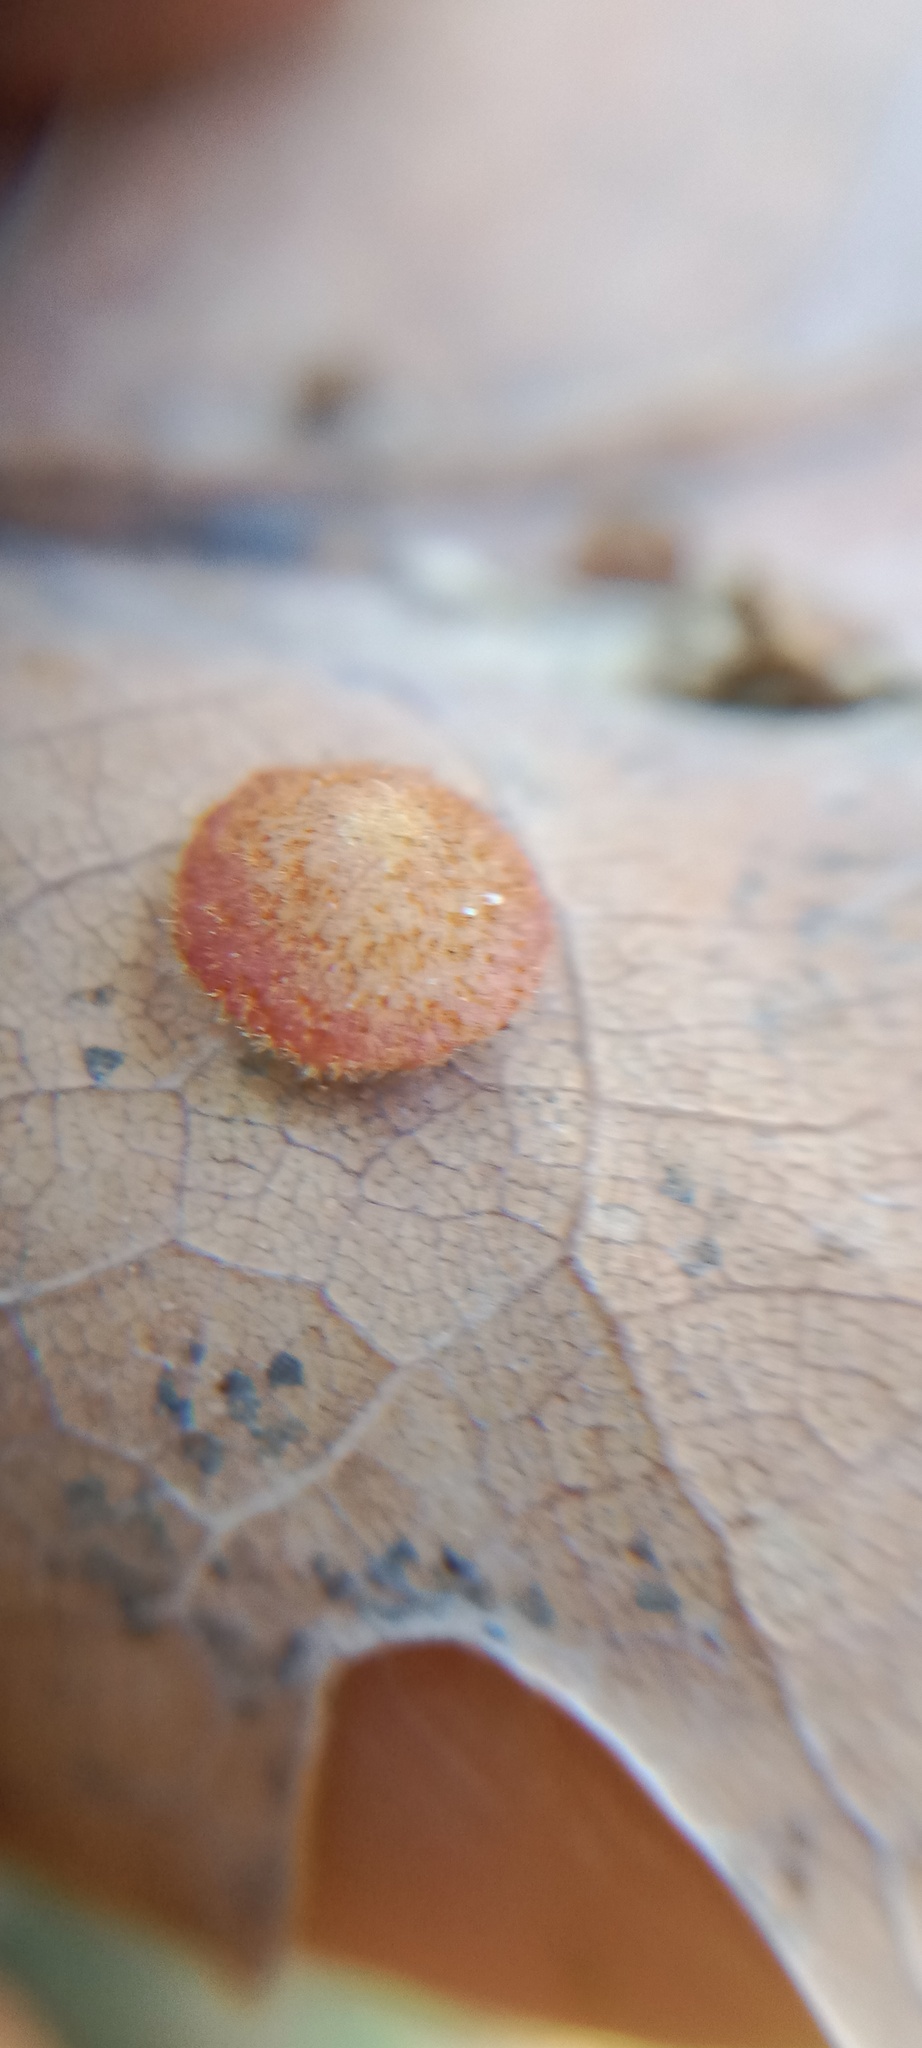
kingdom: Animalia
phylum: Arthropoda
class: Insecta
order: Hymenoptera
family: Cynipidae
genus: Neuroterus
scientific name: Neuroterus quercusbaccarum
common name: Common spangle gall
